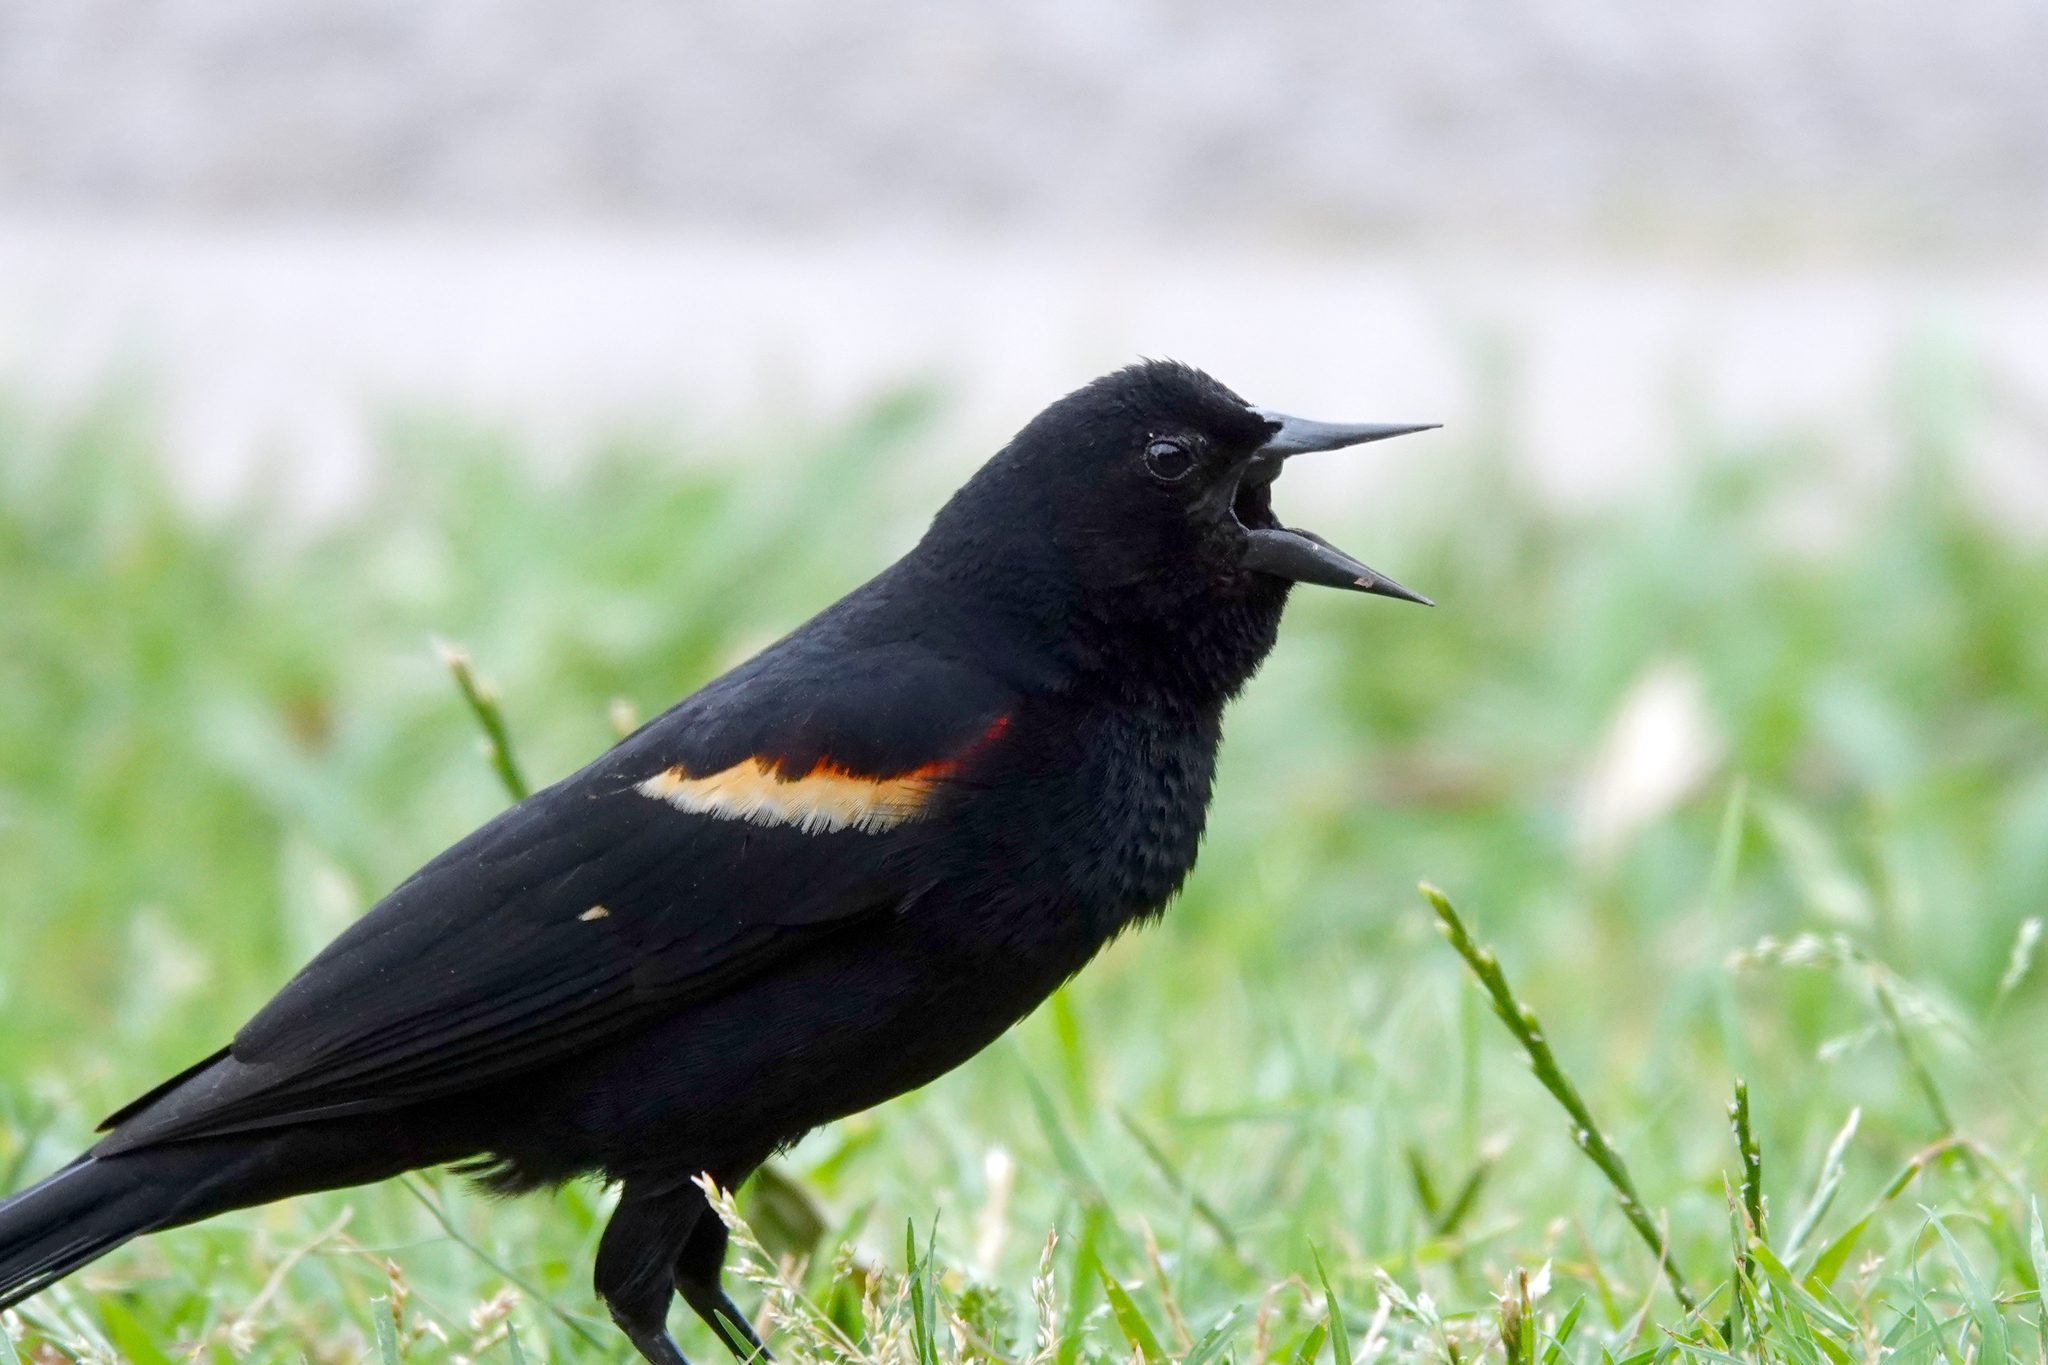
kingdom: Animalia
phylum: Chordata
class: Aves
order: Passeriformes
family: Icteridae
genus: Agelaius
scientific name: Agelaius phoeniceus
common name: Red-winged blackbird
